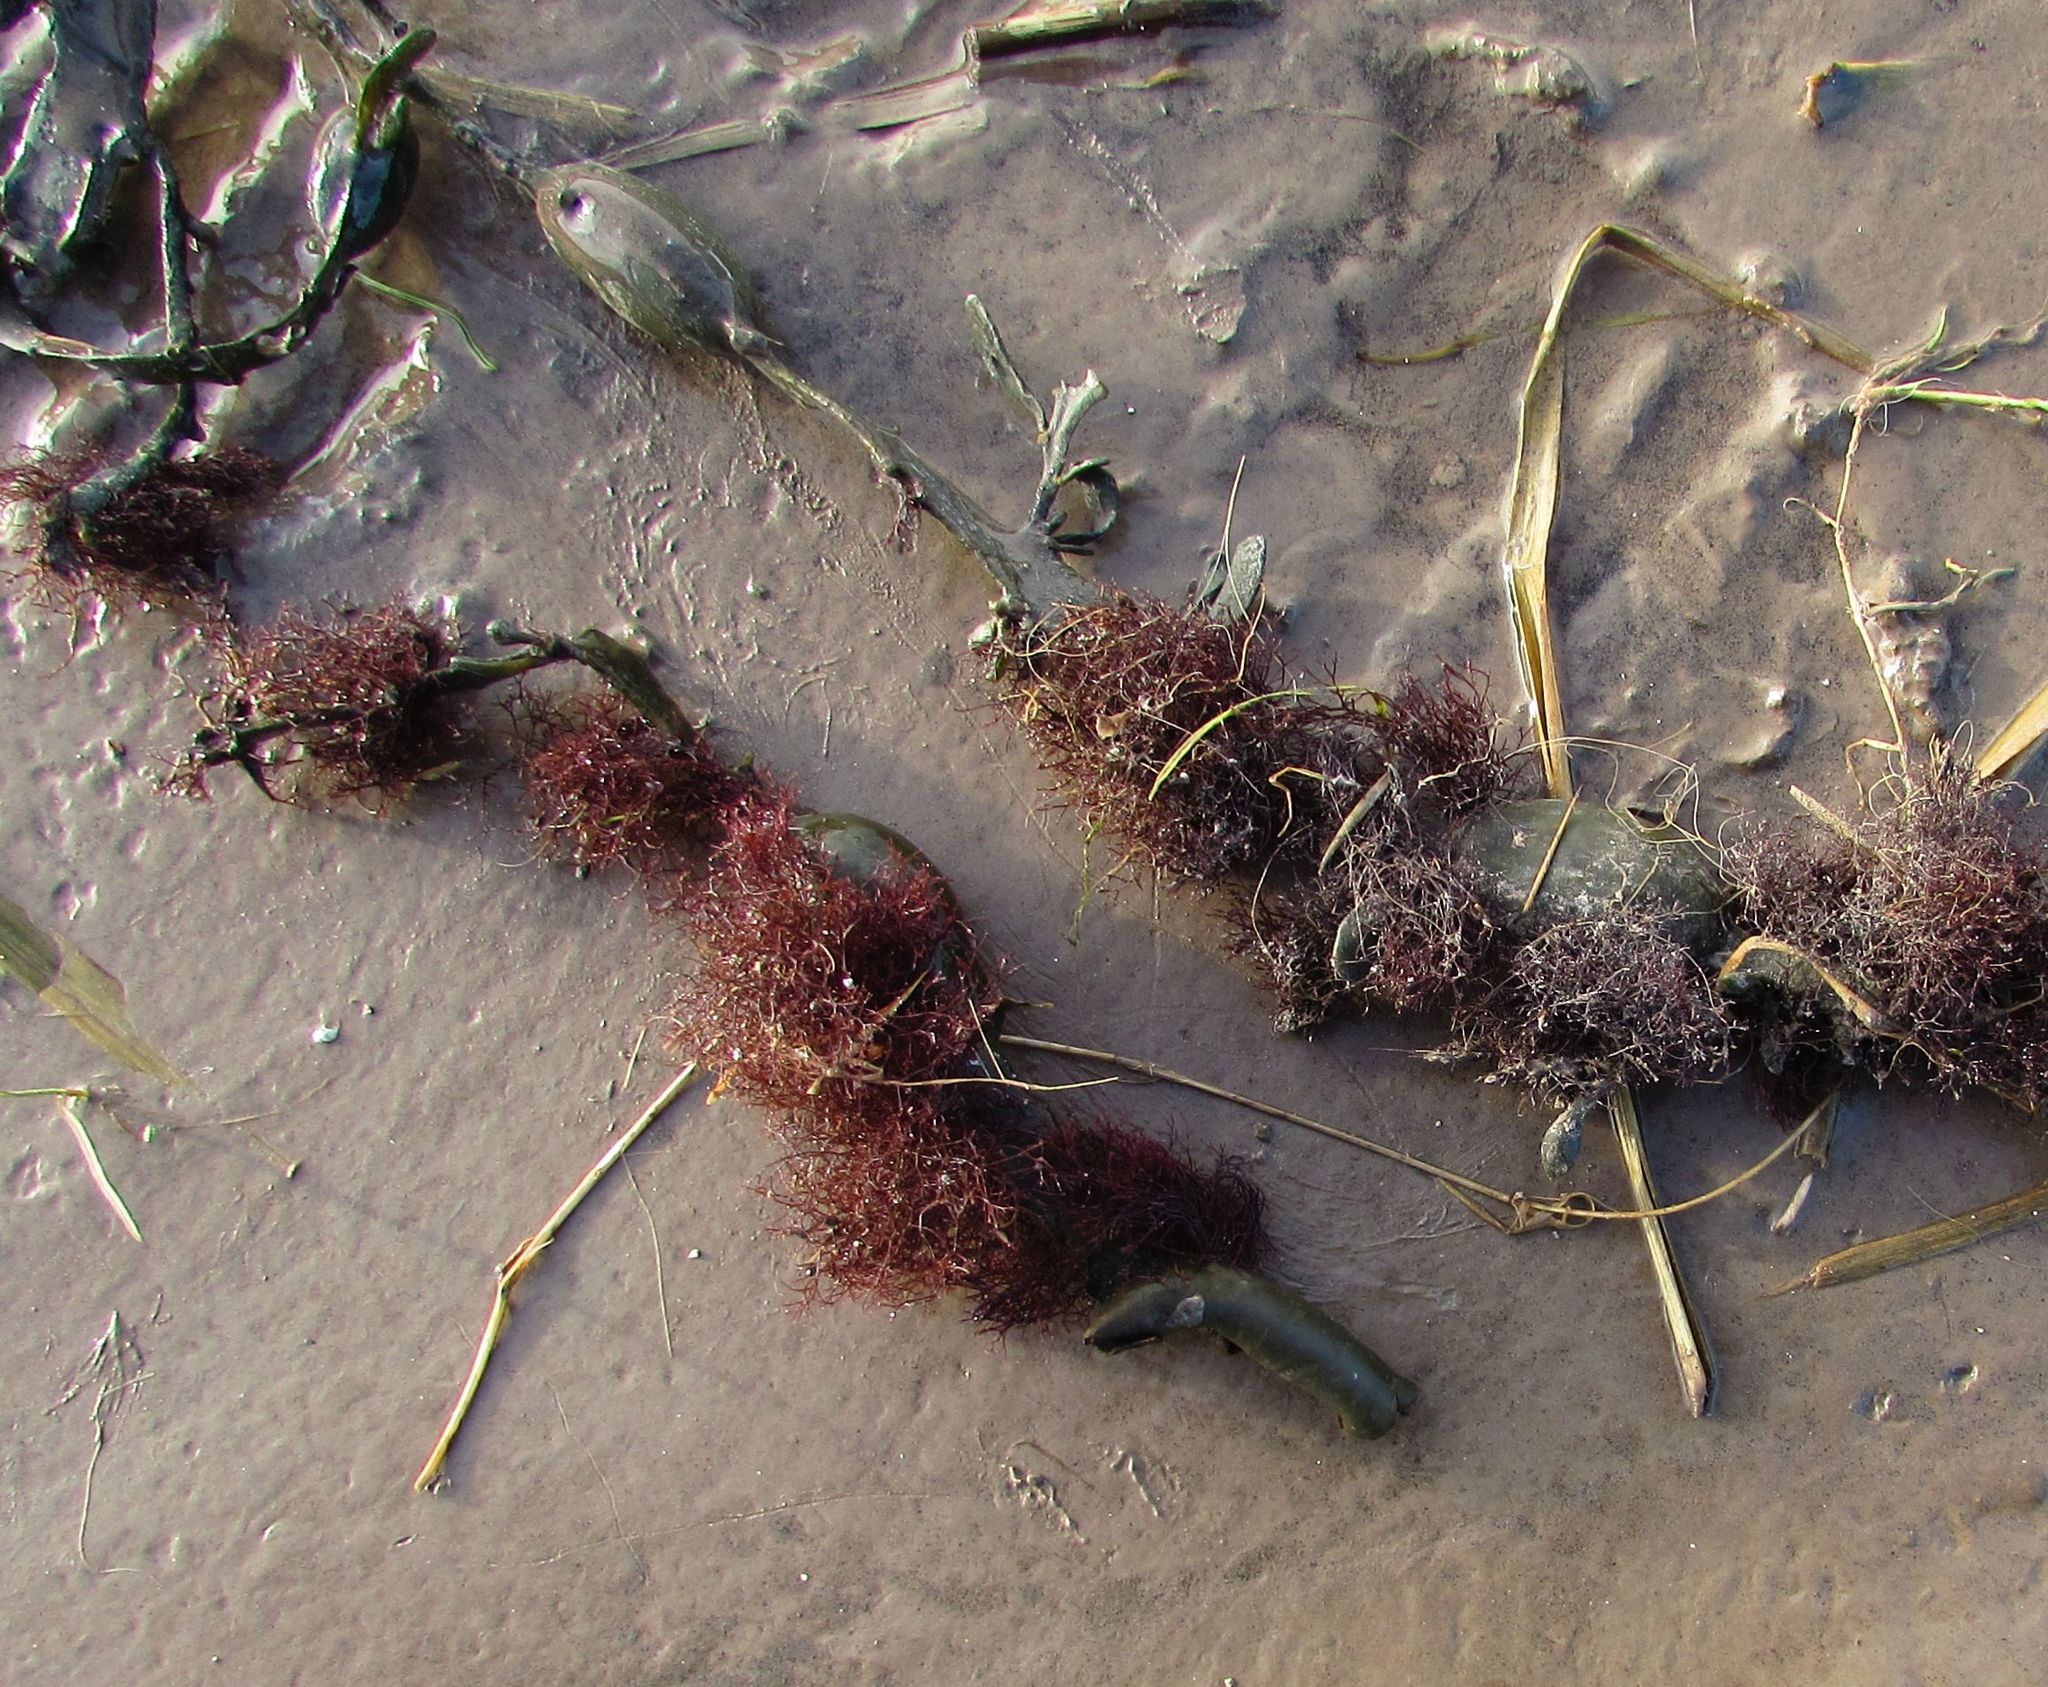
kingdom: Plantae
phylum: Rhodophyta
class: Florideophyceae
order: Ceramiales
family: Rhodomelaceae
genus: Vertebrata
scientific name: Vertebrata lanosa
